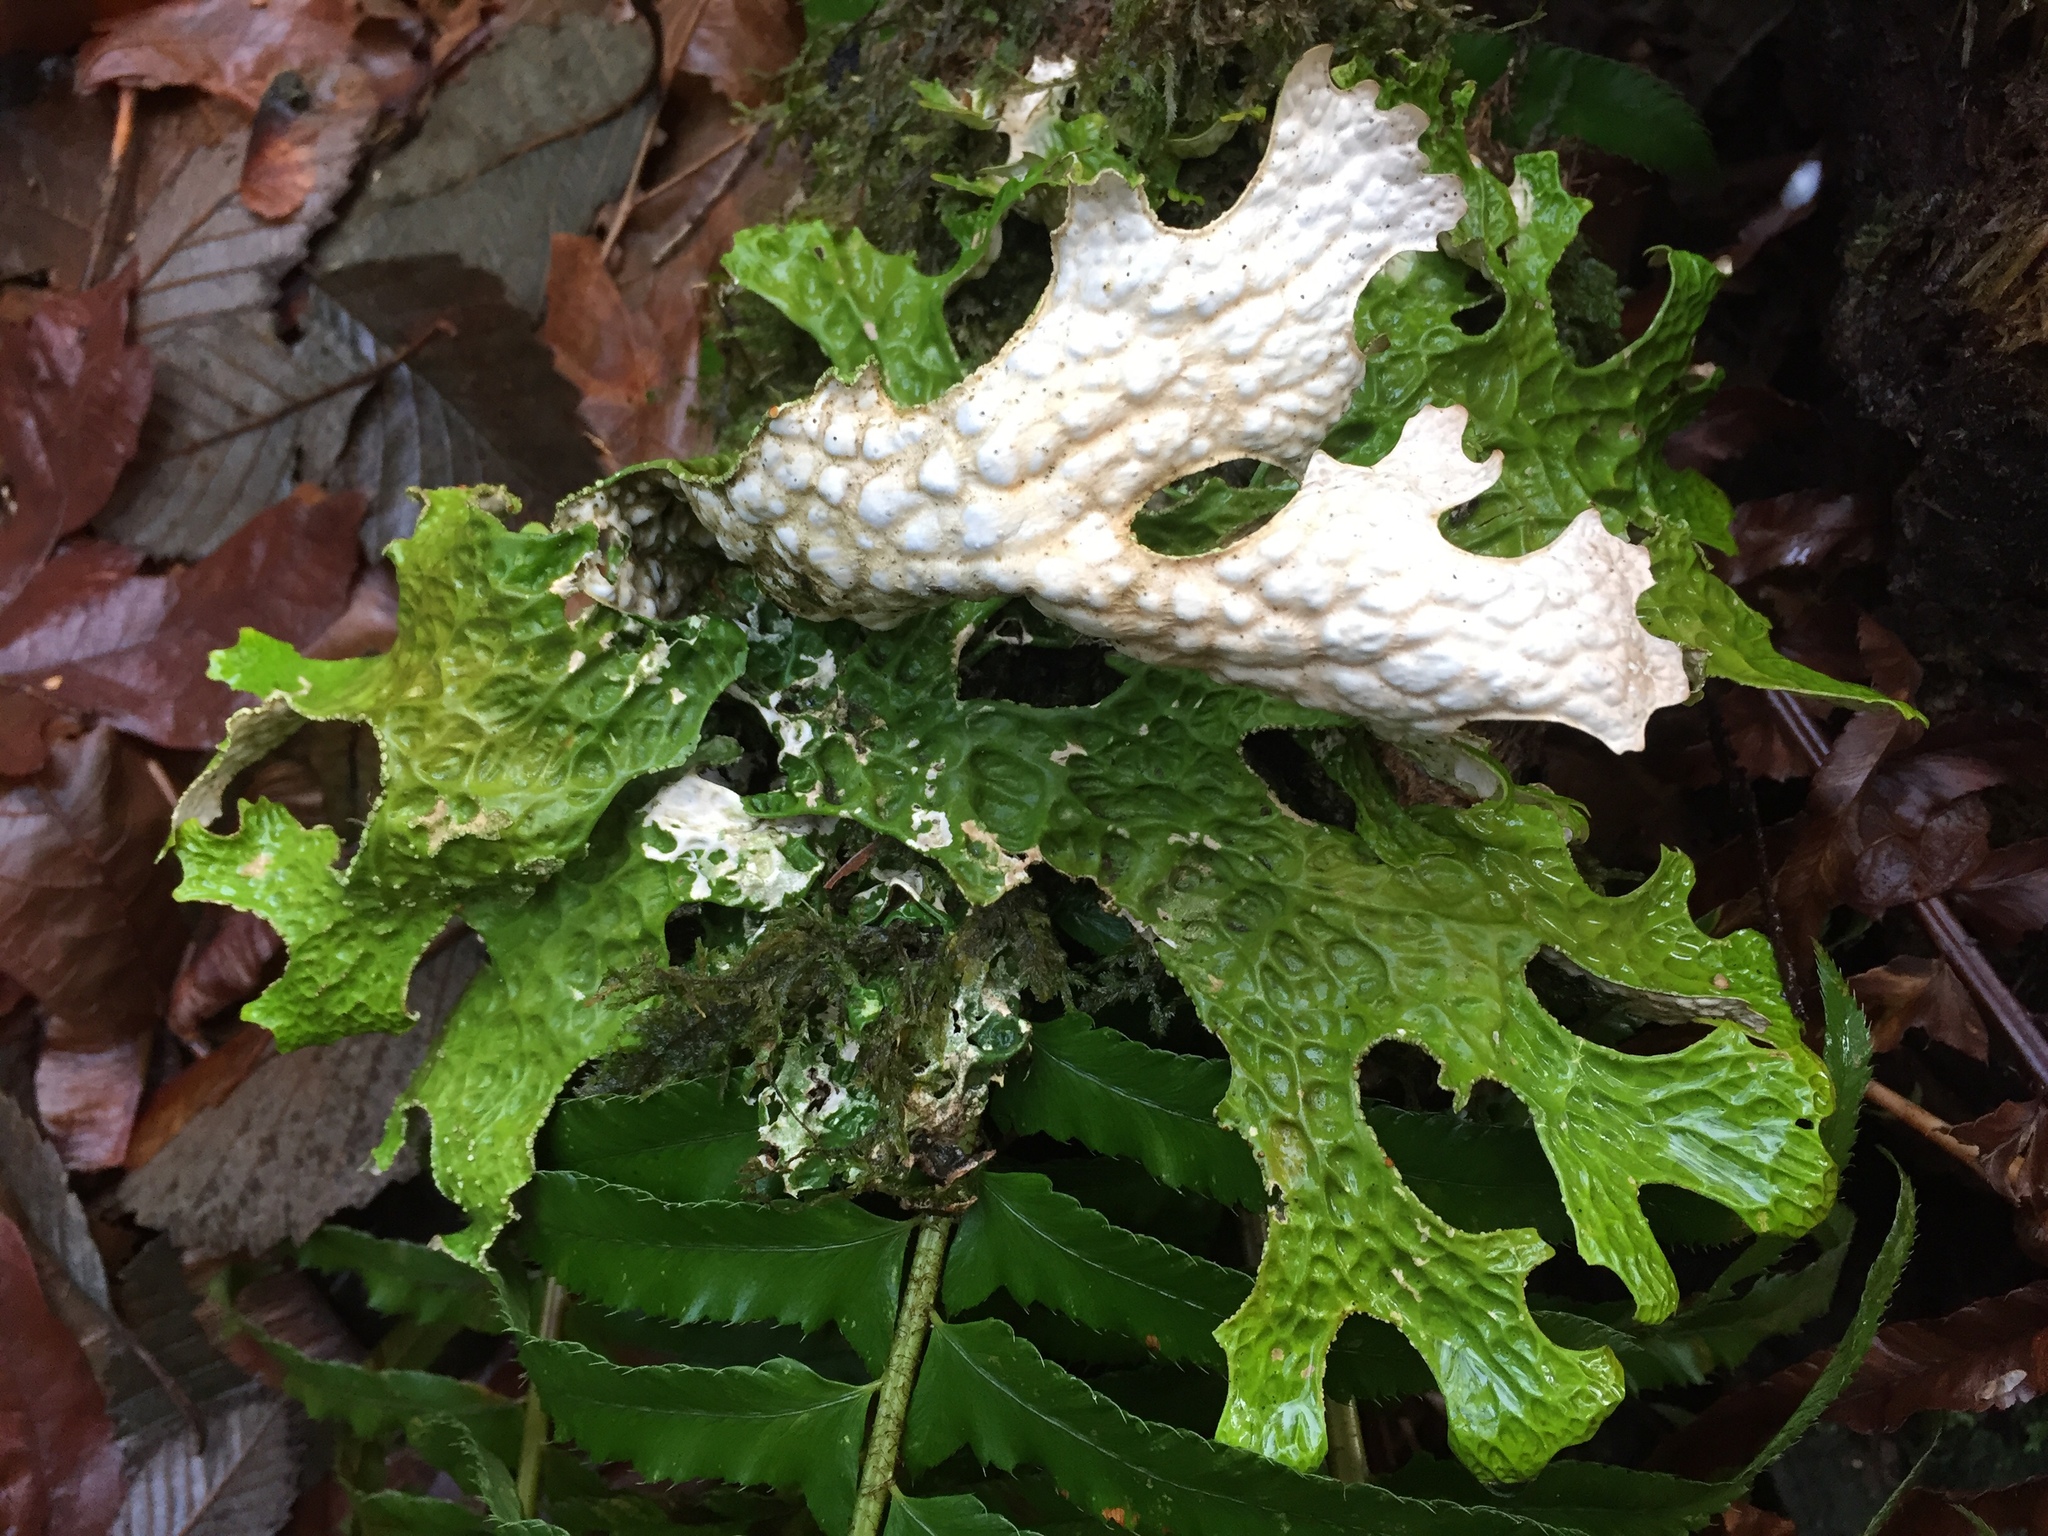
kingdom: Fungi
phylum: Ascomycota
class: Lecanoromycetes
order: Peltigerales
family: Lobariaceae
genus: Lobaria
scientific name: Lobaria pulmonaria
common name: Lungwort
